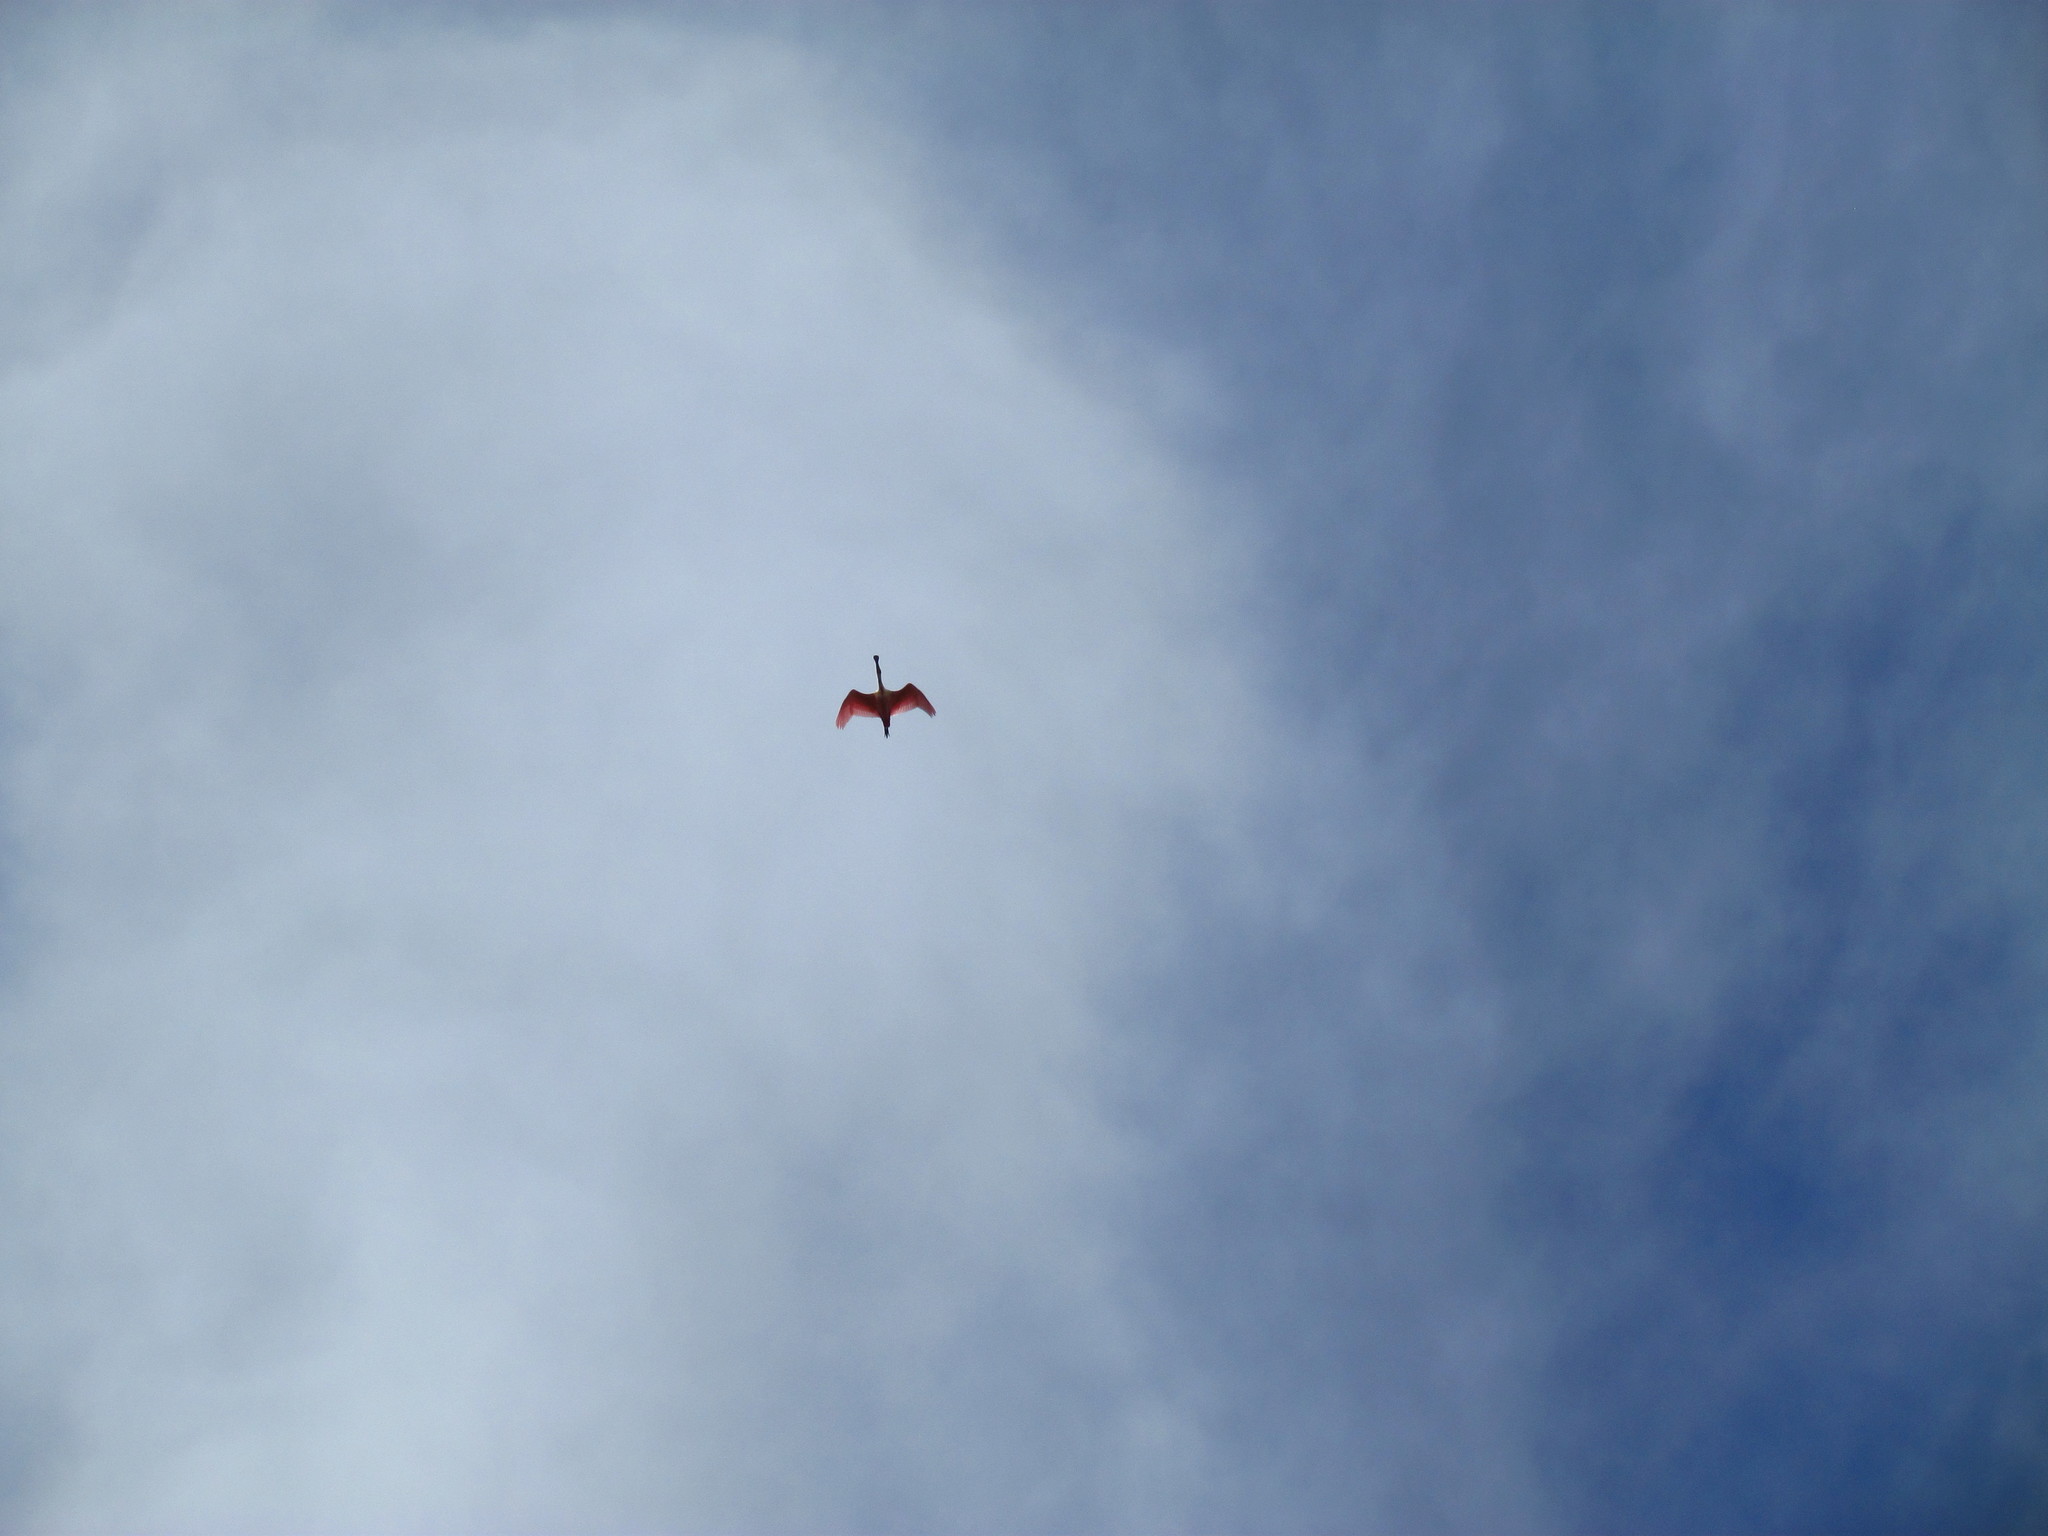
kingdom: Animalia
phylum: Chordata
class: Aves
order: Pelecaniformes
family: Threskiornithidae
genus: Platalea
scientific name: Platalea ajaja
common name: Roseate spoonbill
